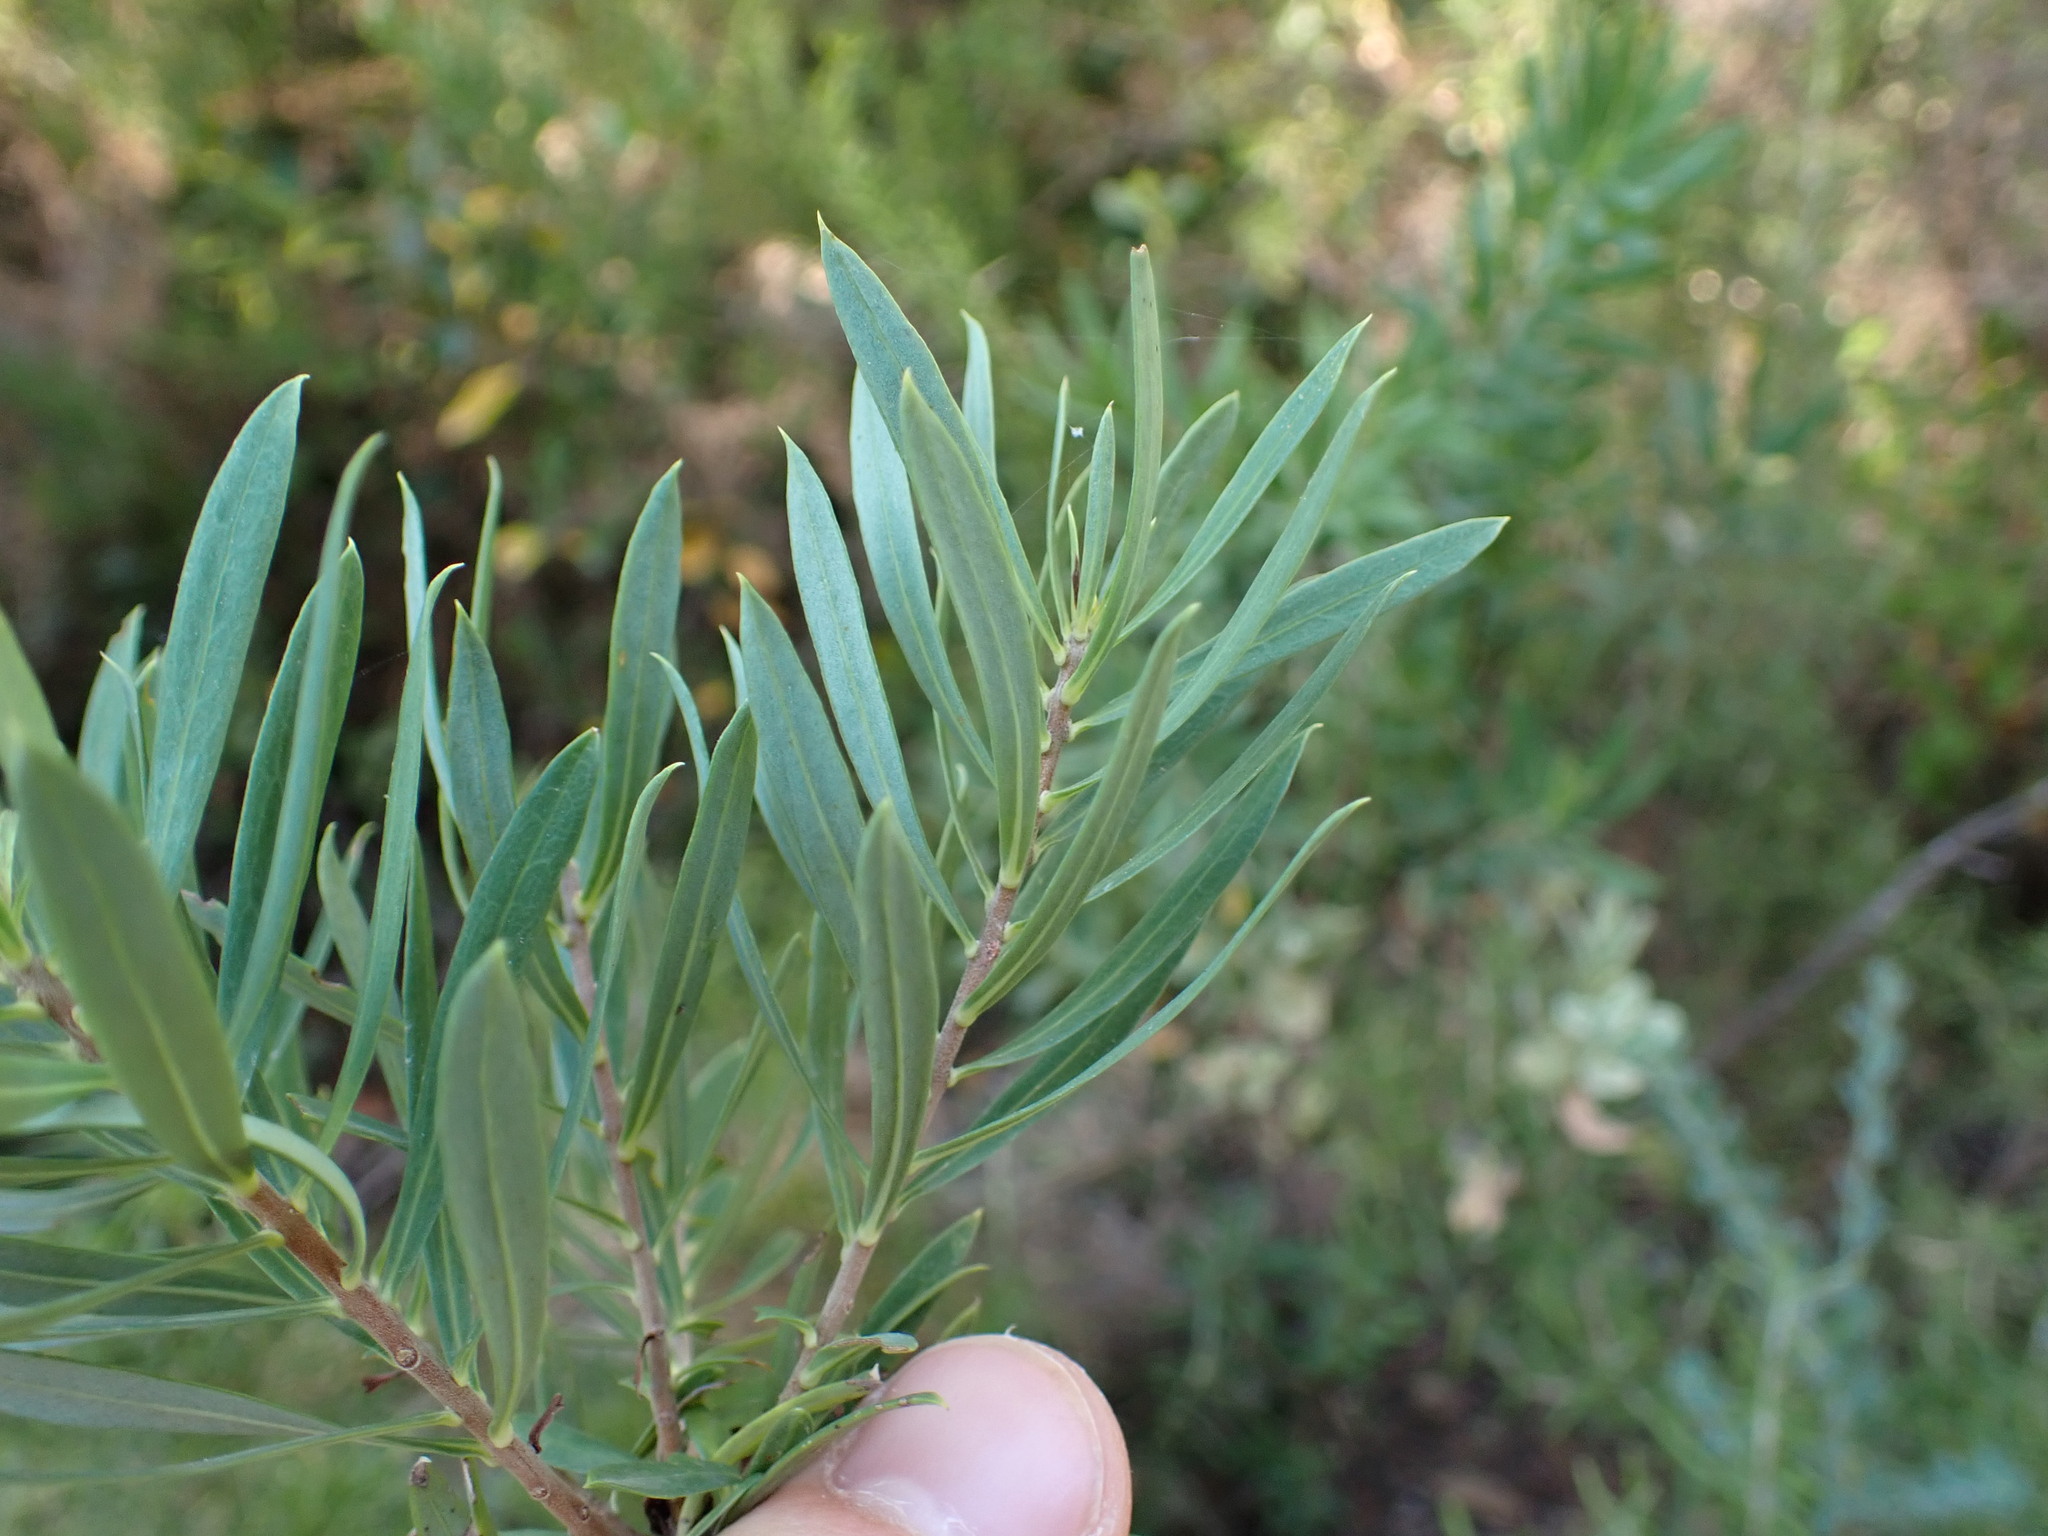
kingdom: Plantae
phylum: Tracheophyta
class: Magnoliopsida
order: Malvales
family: Thymelaeaceae
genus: Daphne
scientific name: Daphne gnidium
